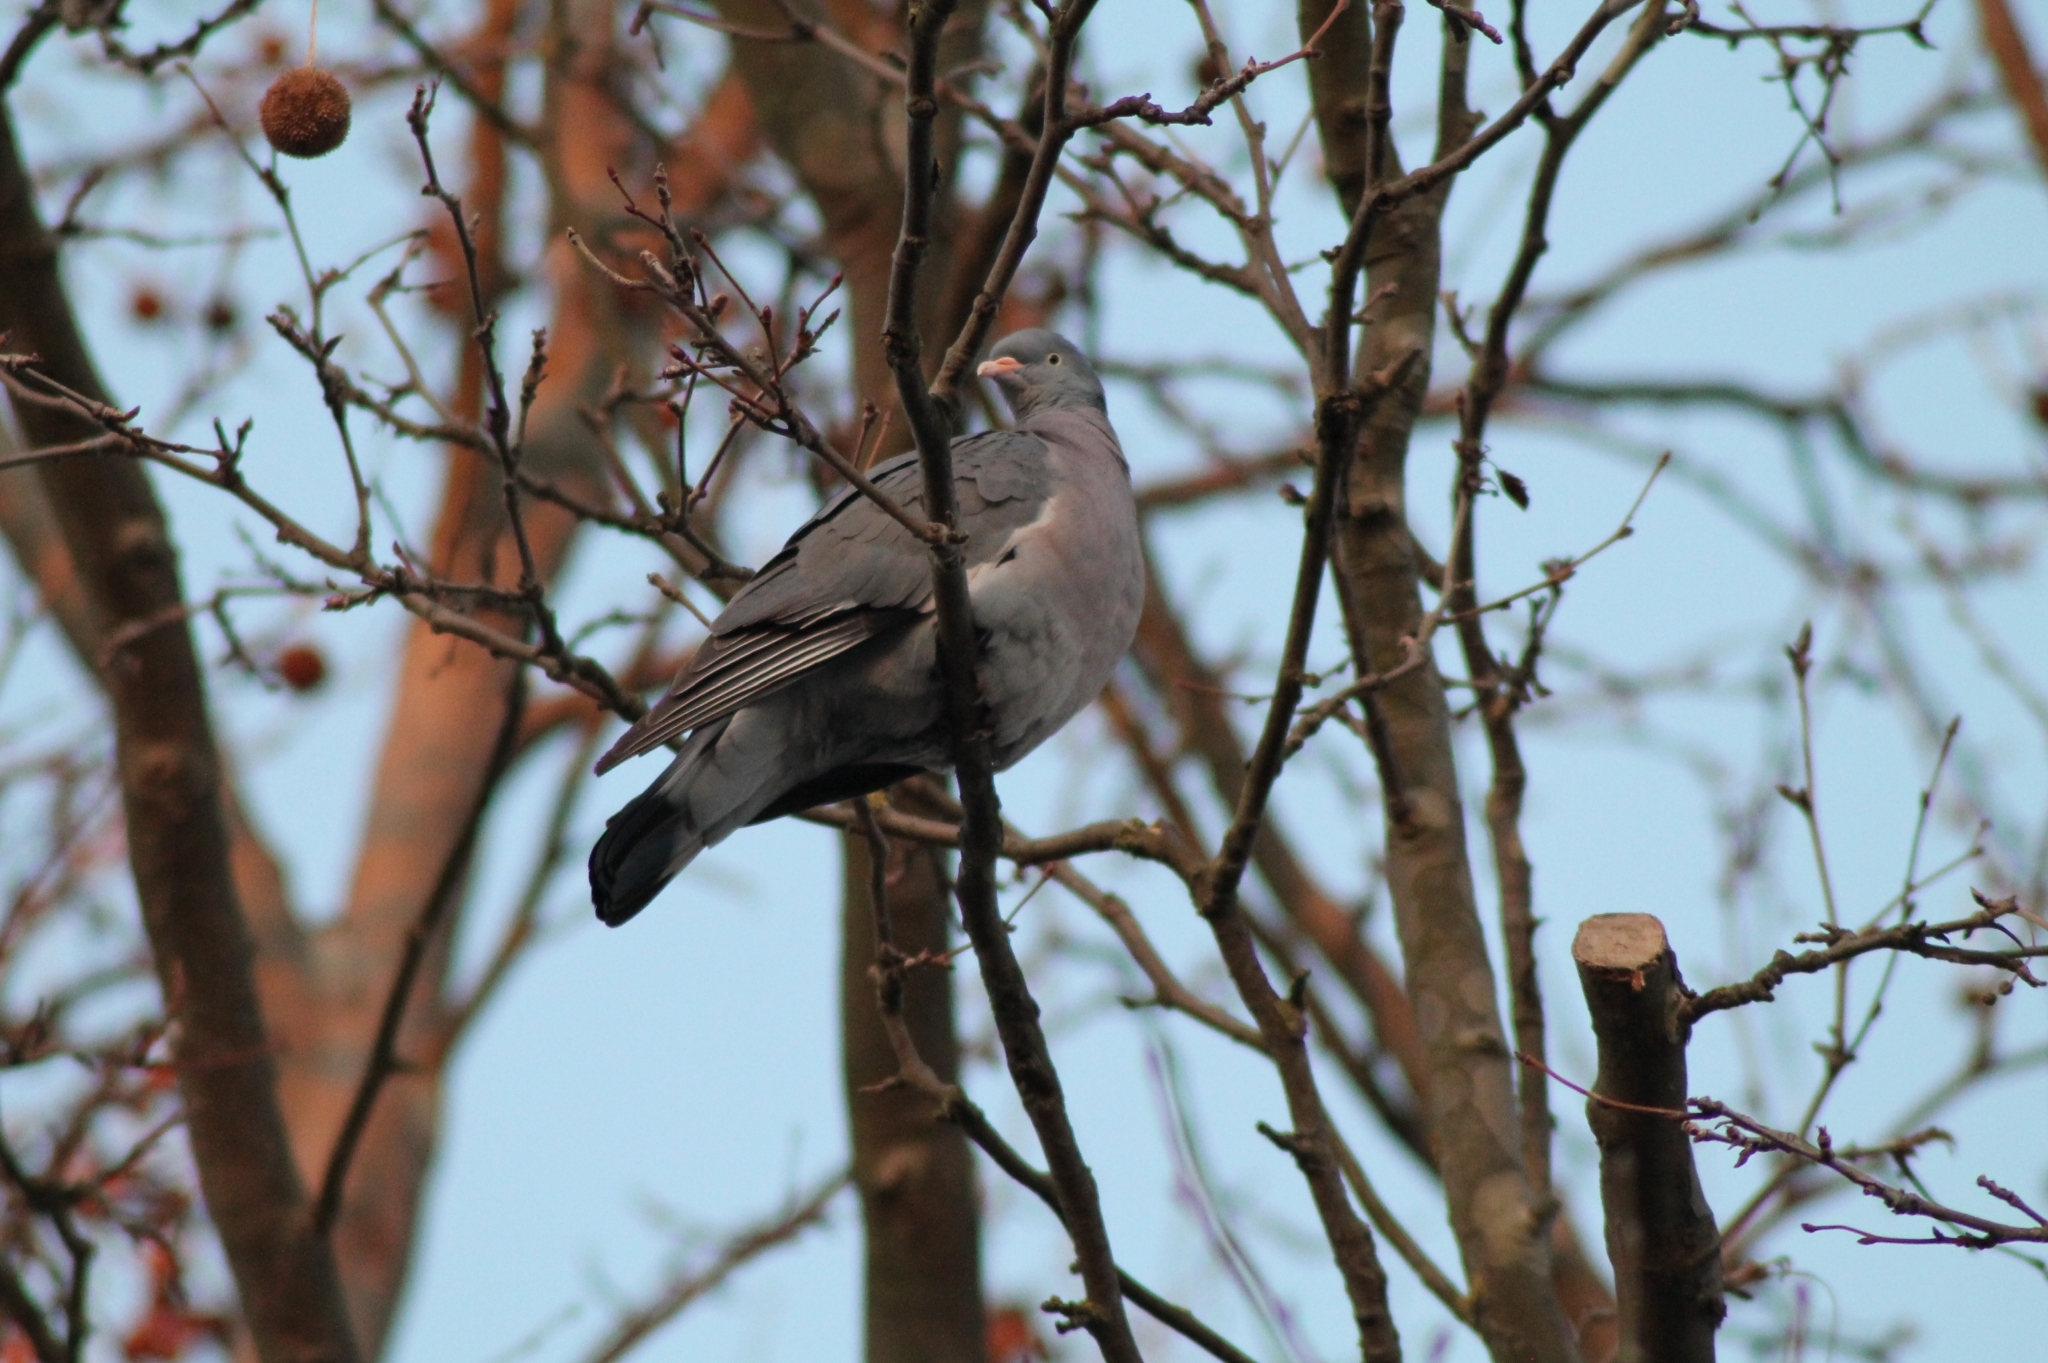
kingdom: Animalia
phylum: Chordata
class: Aves
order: Columbiformes
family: Columbidae
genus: Columba
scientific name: Columba palumbus
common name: Common wood pigeon
